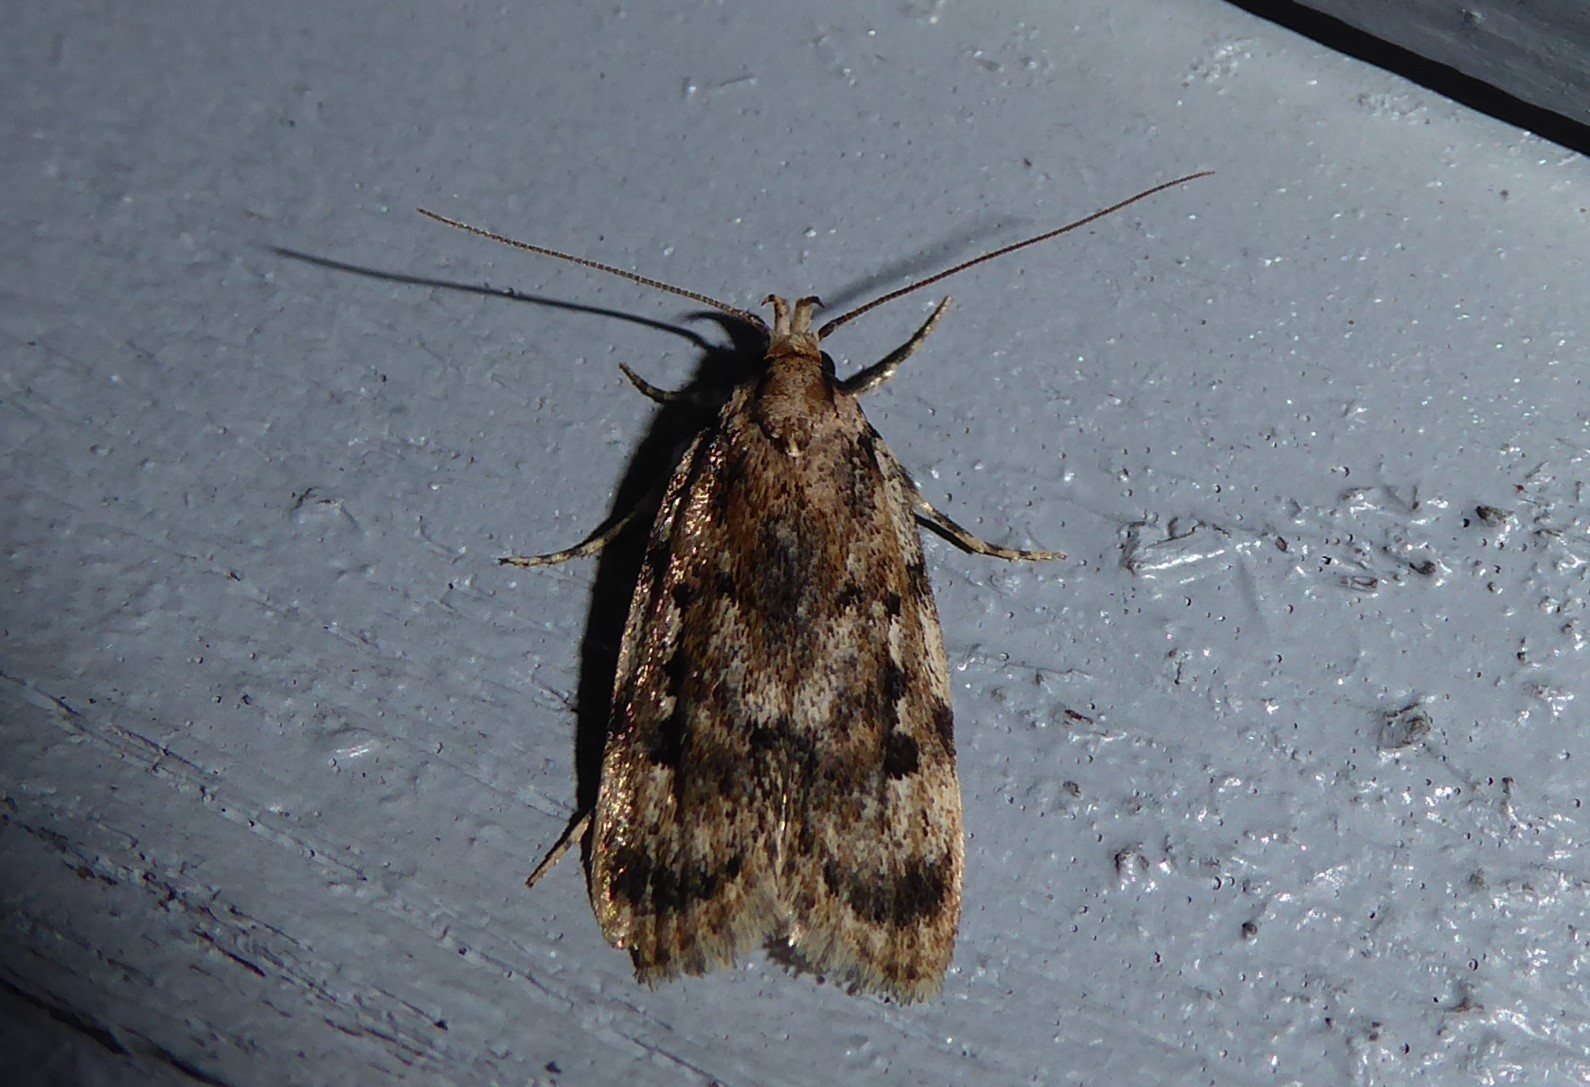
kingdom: Animalia
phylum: Arthropoda
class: Insecta
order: Lepidoptera
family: Oecophoridae
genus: Barea
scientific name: Barea exarcha
